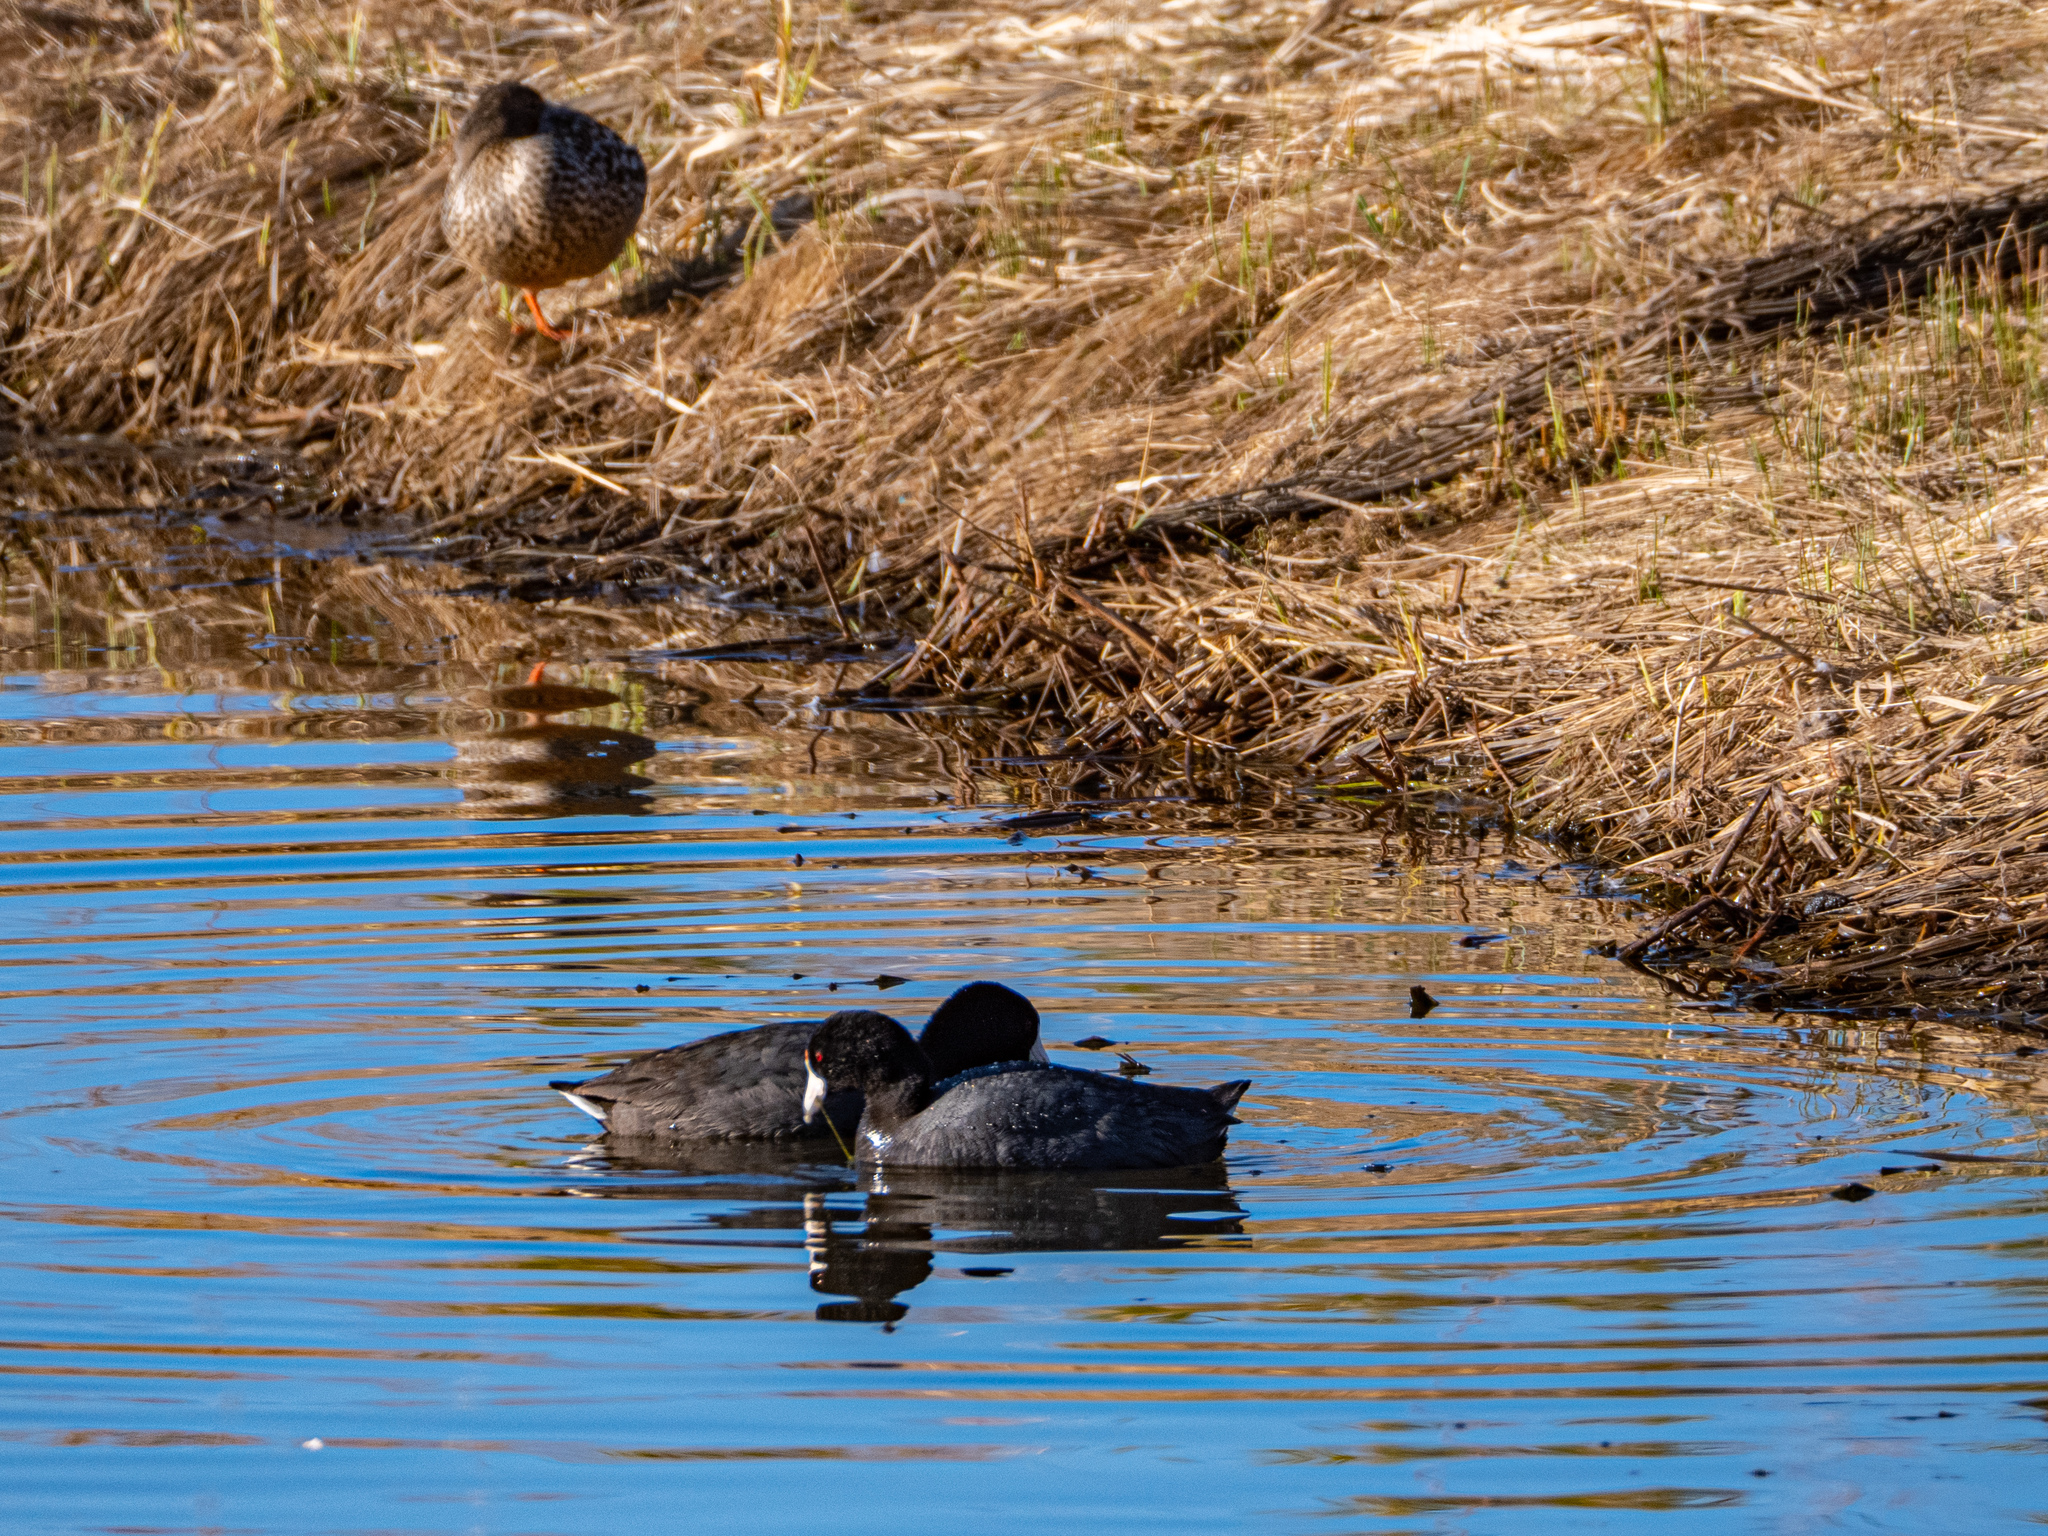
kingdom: Animalia
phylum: Chordata
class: Aves
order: Gruiformes
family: Rallidae
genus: Fulica
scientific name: Fulica americana
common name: American coot
